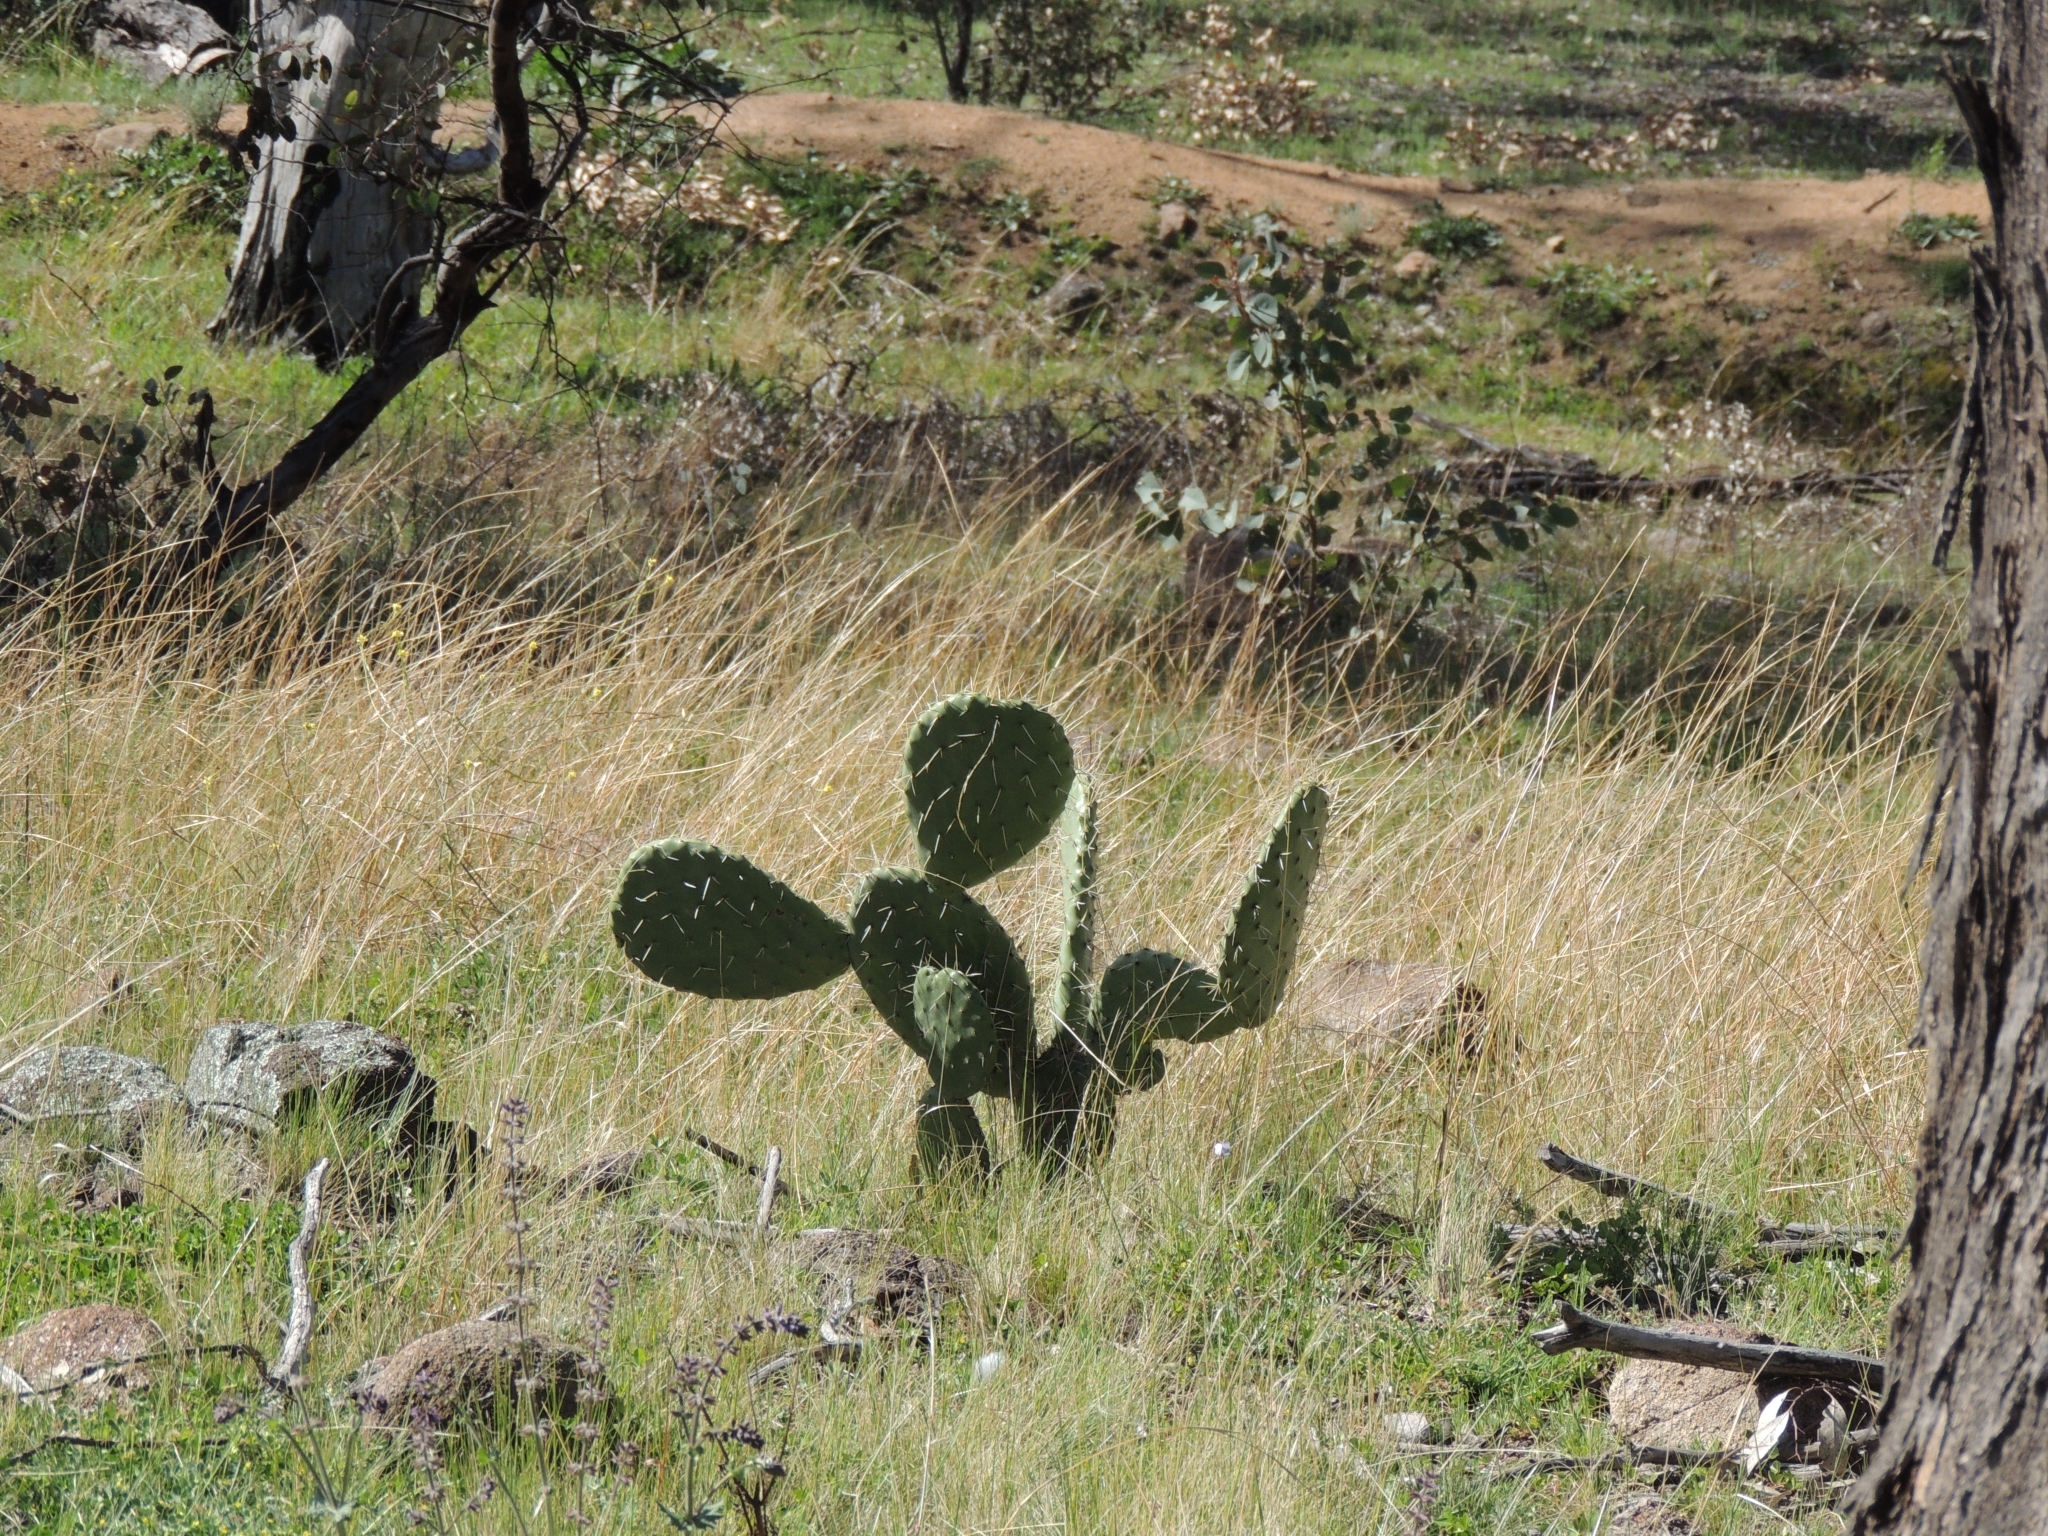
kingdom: Plantae
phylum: Tracheophyta
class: Magnoliopsida
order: Caryophyllales
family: Cactaceae
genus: Opuntia
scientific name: Opuntia ficus-indica
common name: Barbary fig
